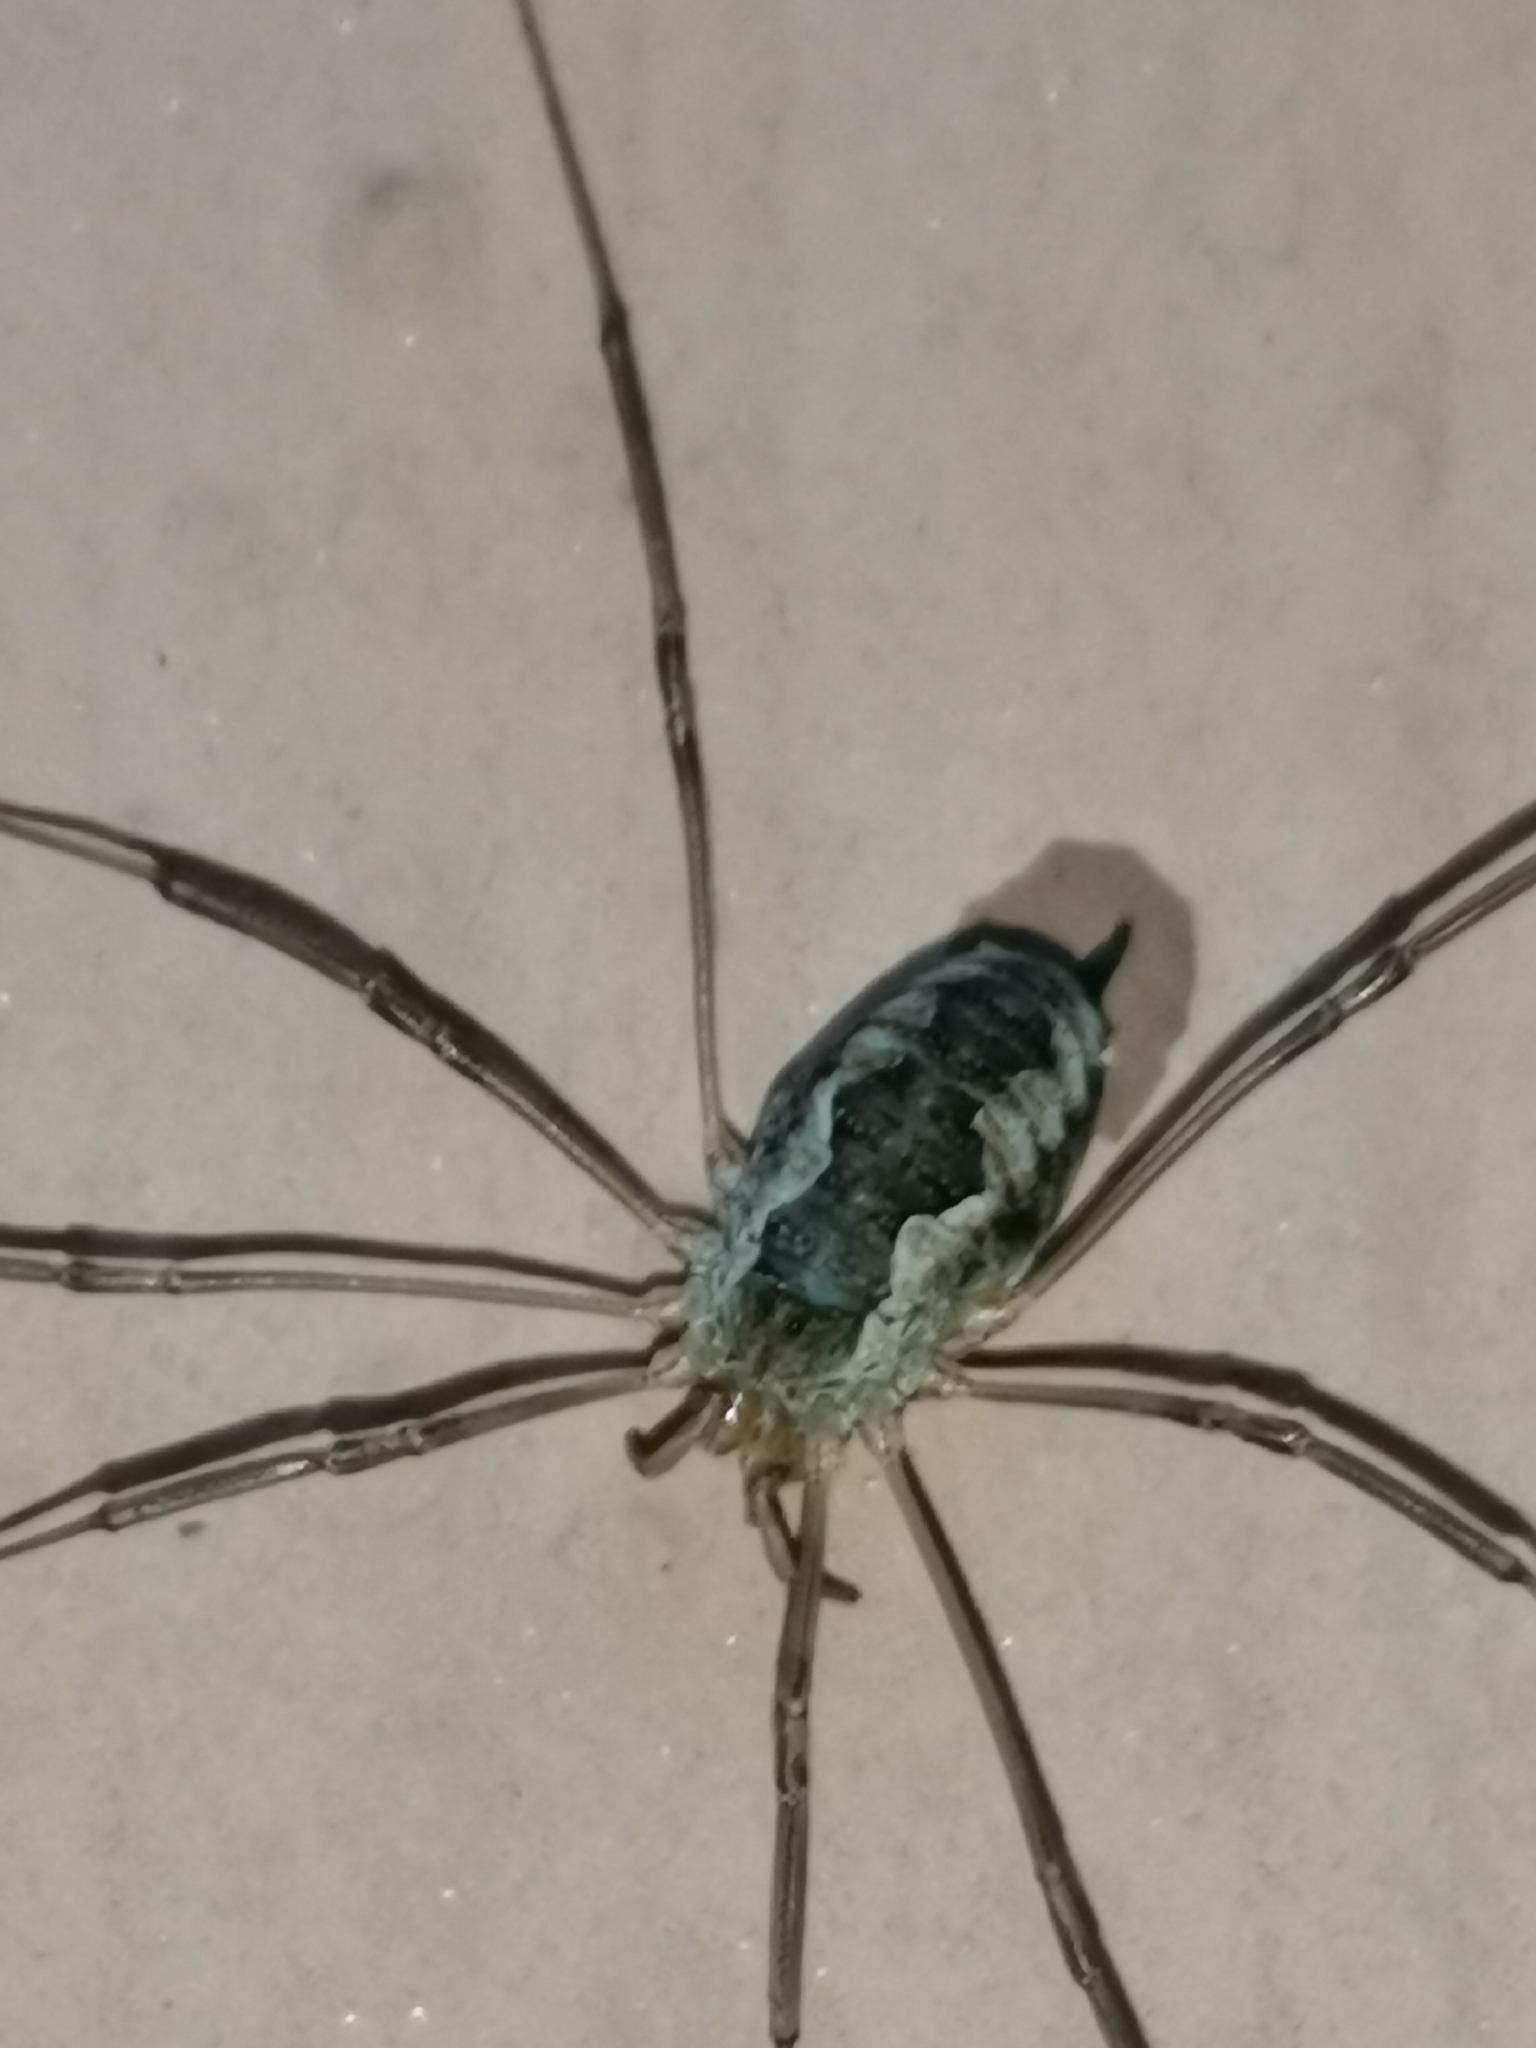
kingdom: Animalia
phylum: Arthropoda
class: Arachnida
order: Opiliones
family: Phalangiidae
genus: Phalangium
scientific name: Phalangium opilio
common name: Daddy longleg
